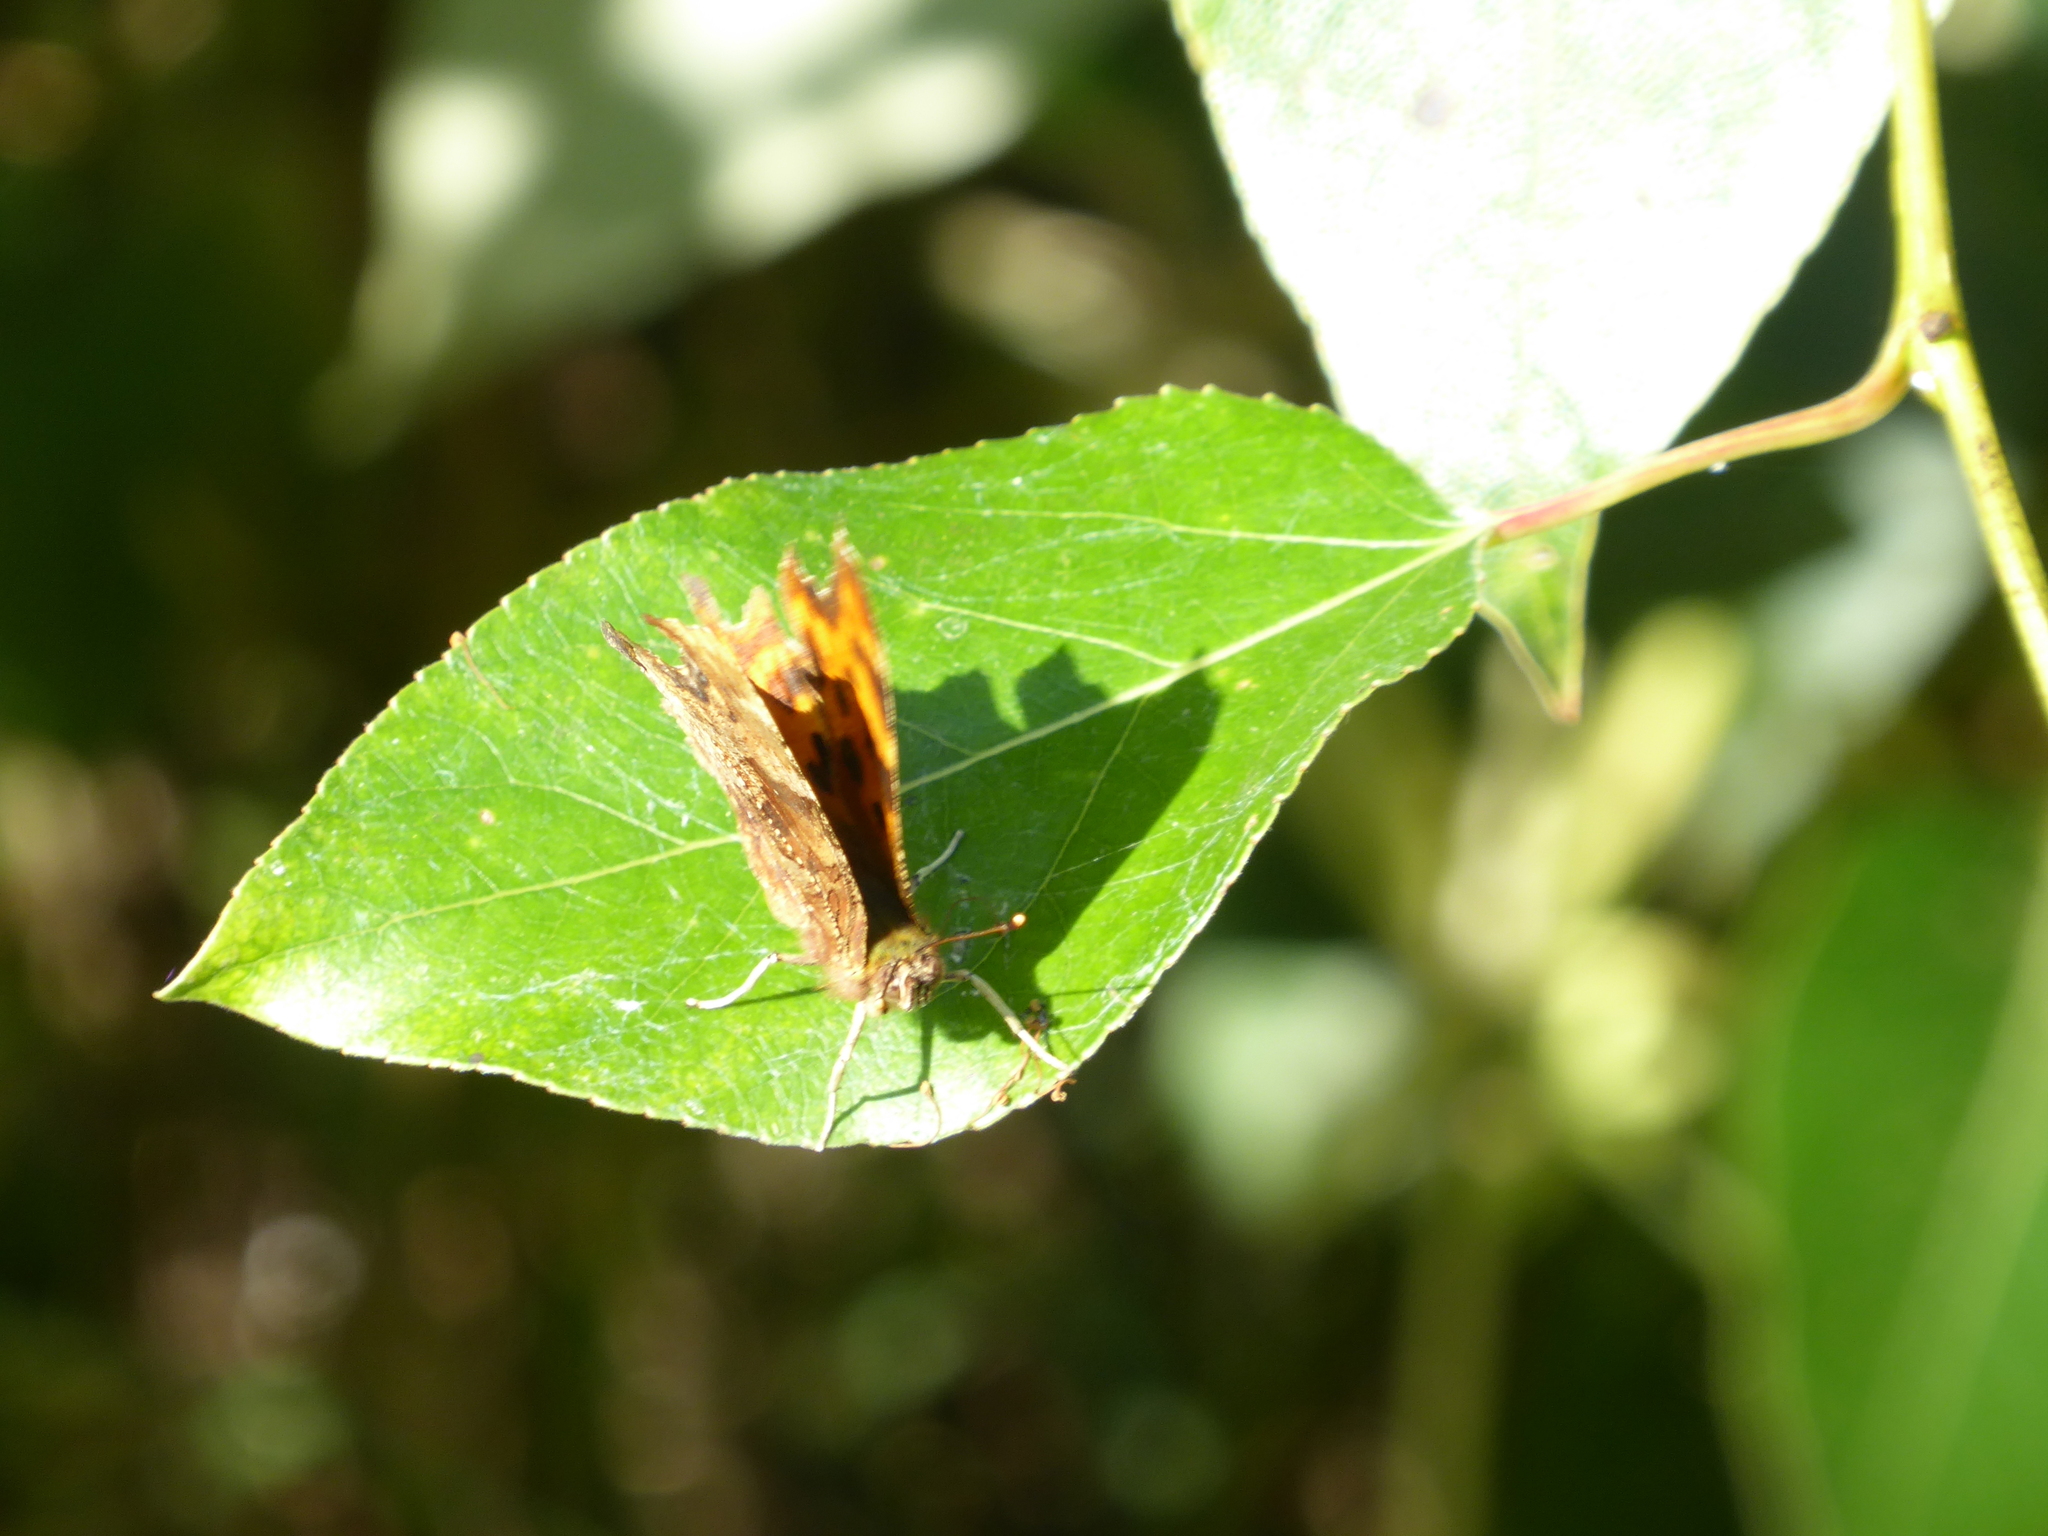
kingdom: Animalia
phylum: Arthropoda
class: Insecta
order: Lepidoptera
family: Nymphalidae
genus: Polygonia
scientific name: Polygonia c-album
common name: Comma
